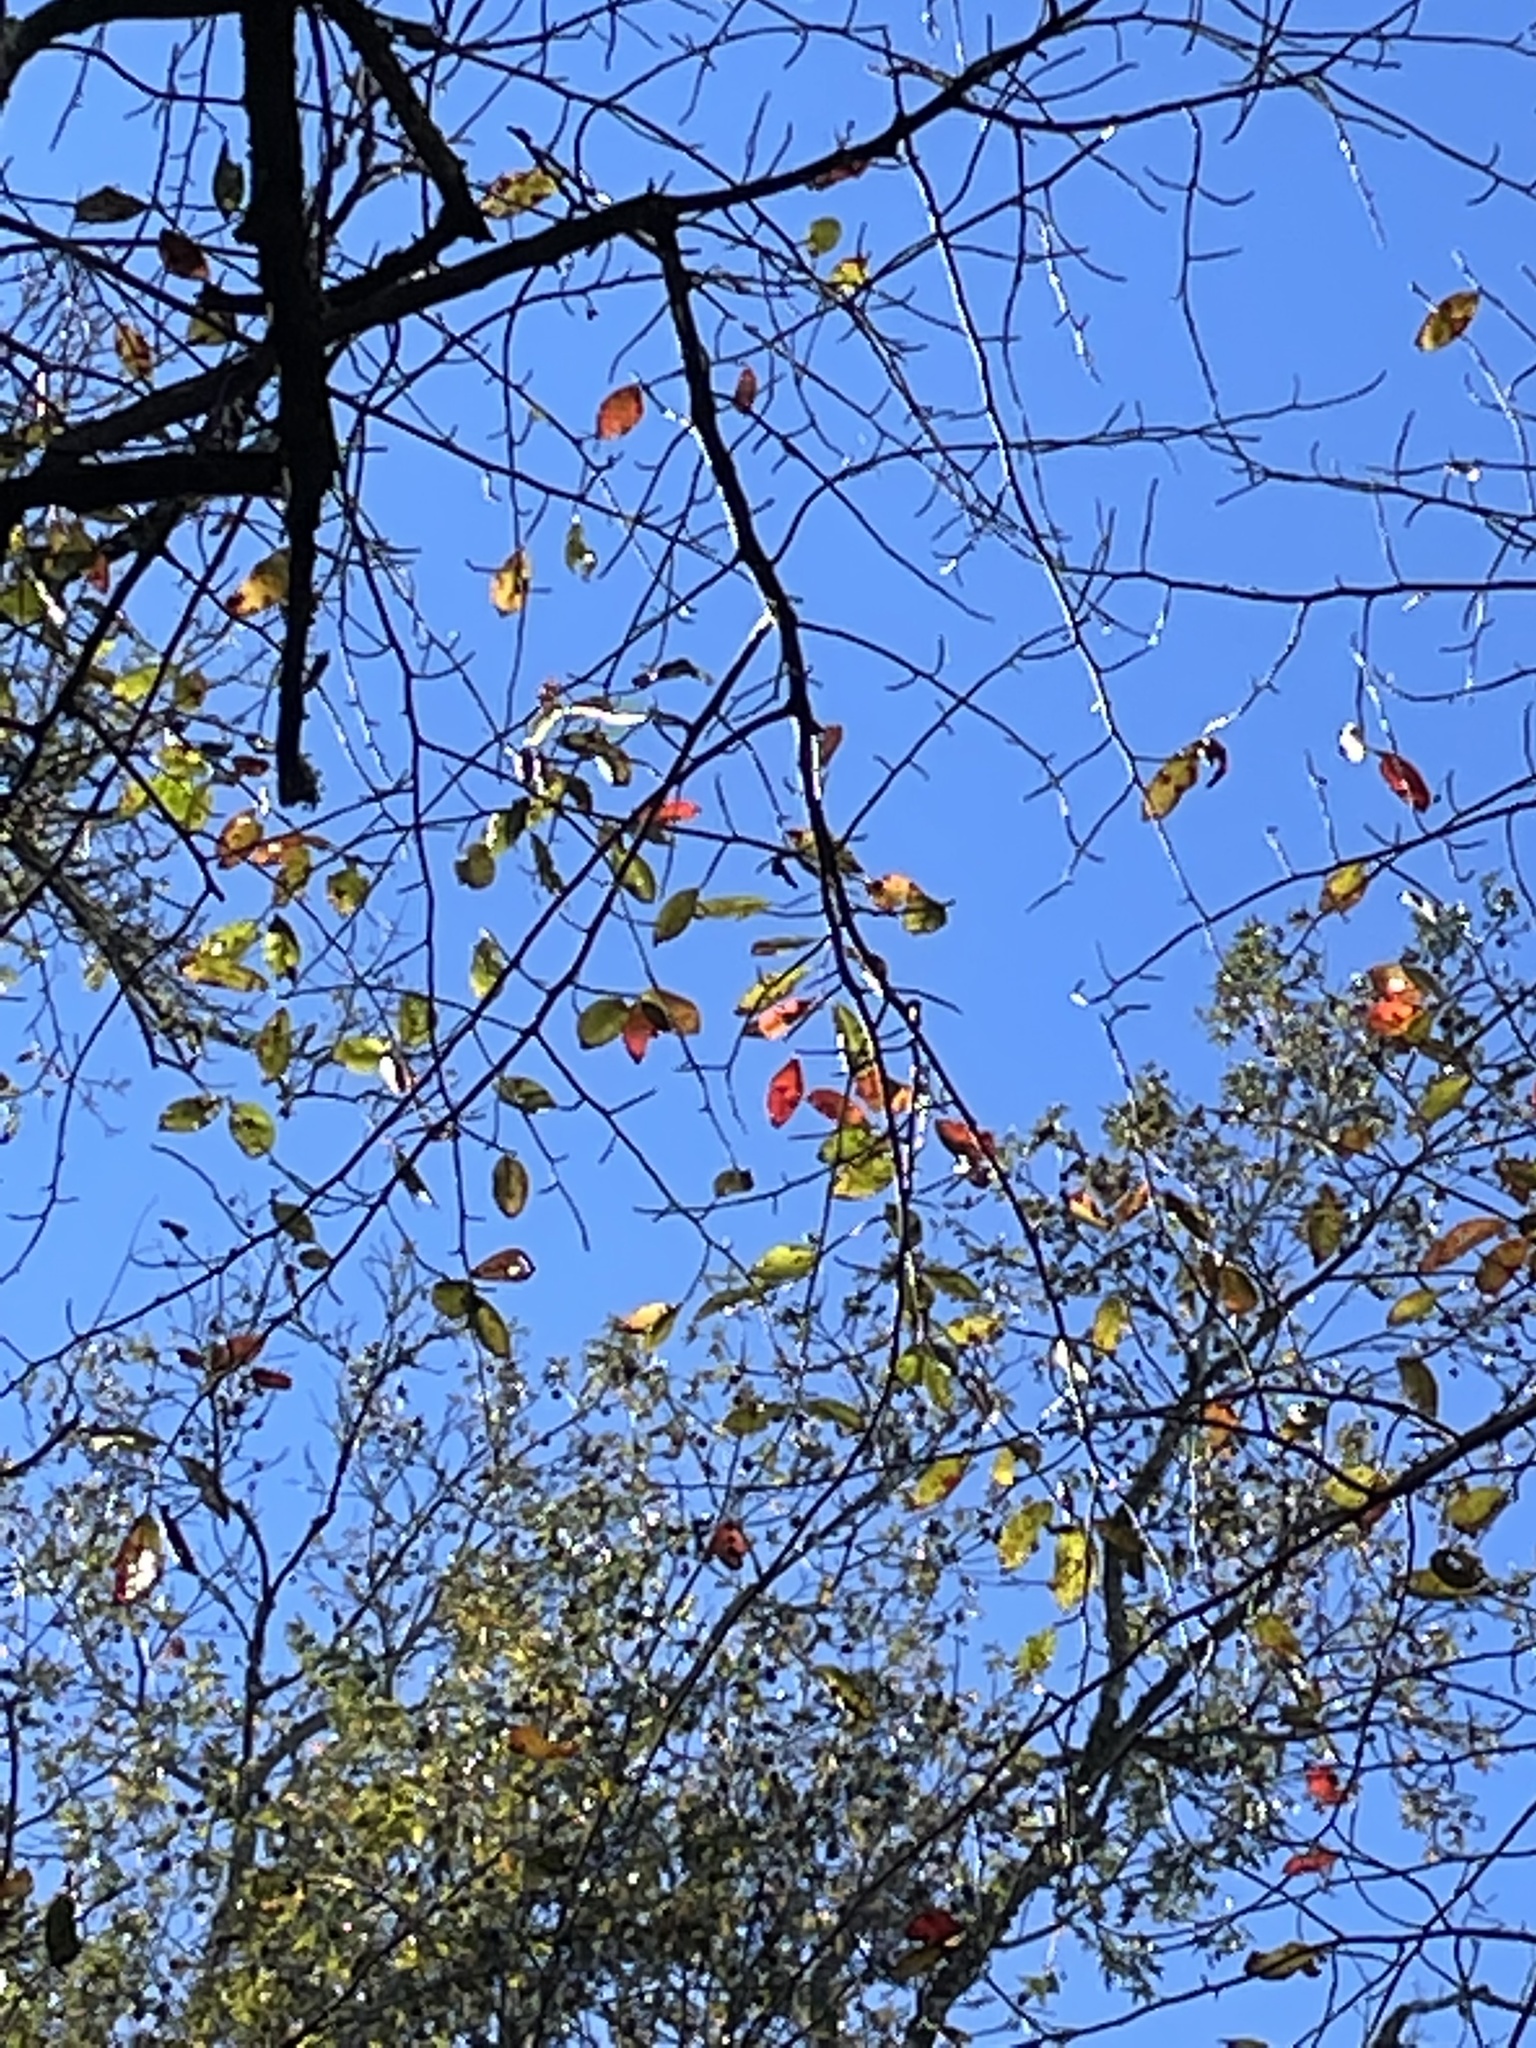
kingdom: Plantae
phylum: Tracheophyta
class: Magnoliopsida
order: Cornales
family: Nyssaceae
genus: Nyssa
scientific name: Nyssa sylvatica
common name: Black tupelo
